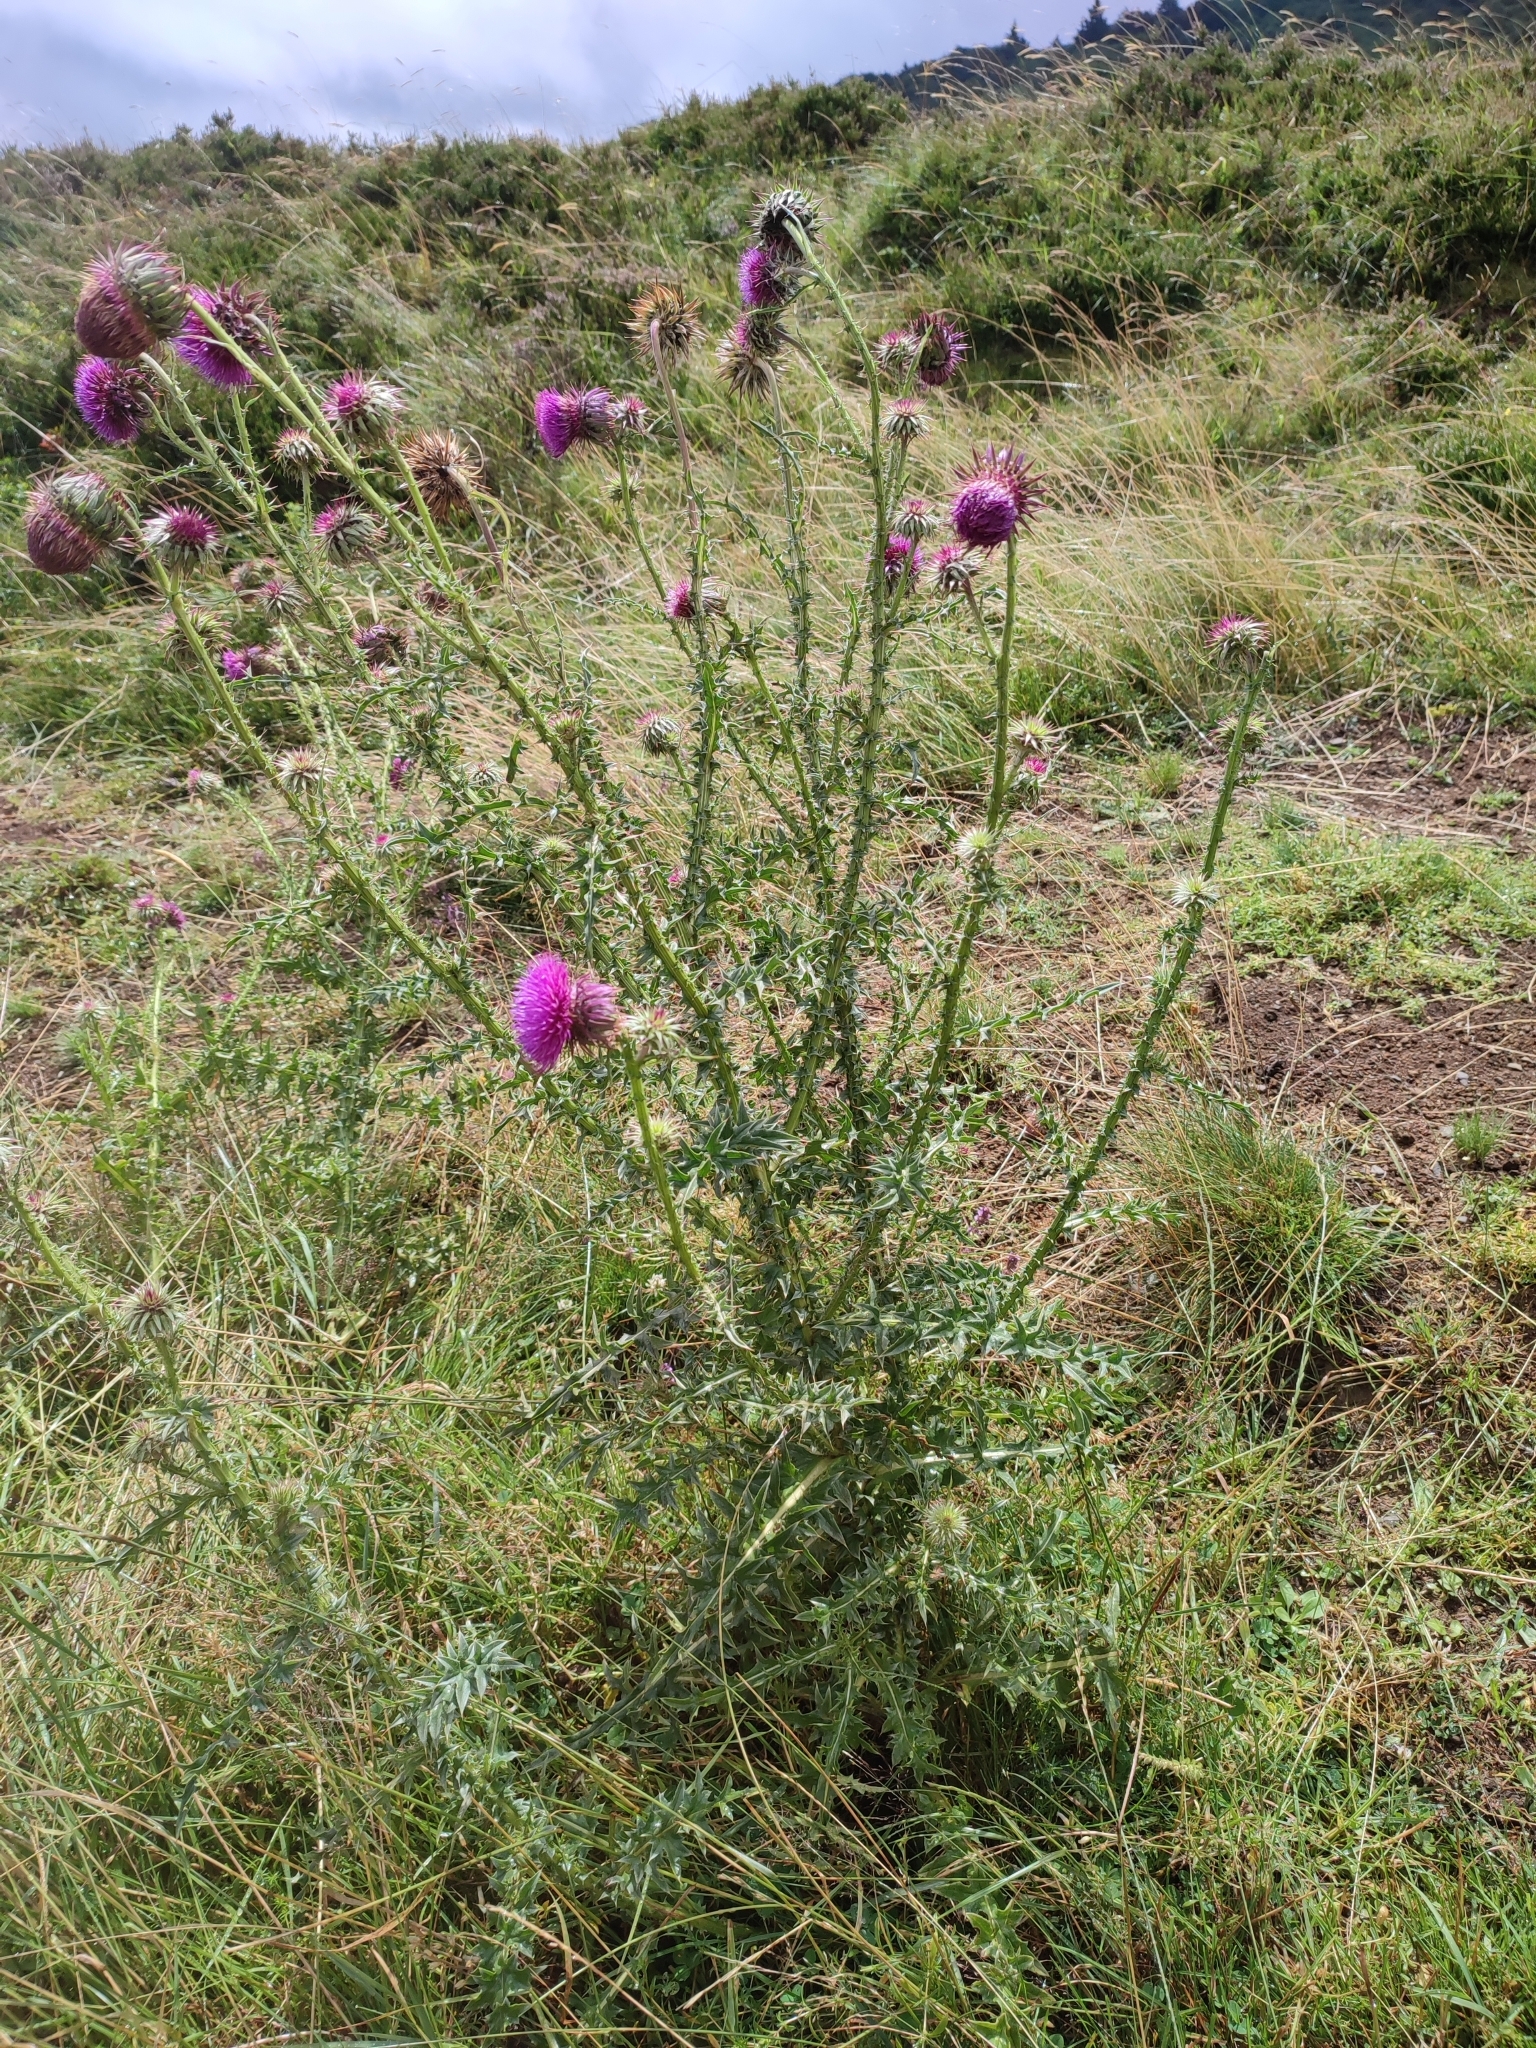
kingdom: Plantae
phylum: Tracheophyta
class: Magnoliopsida
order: Asterales
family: Asteraceae
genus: Carduus
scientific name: Carduus nutans
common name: Musk thistle
